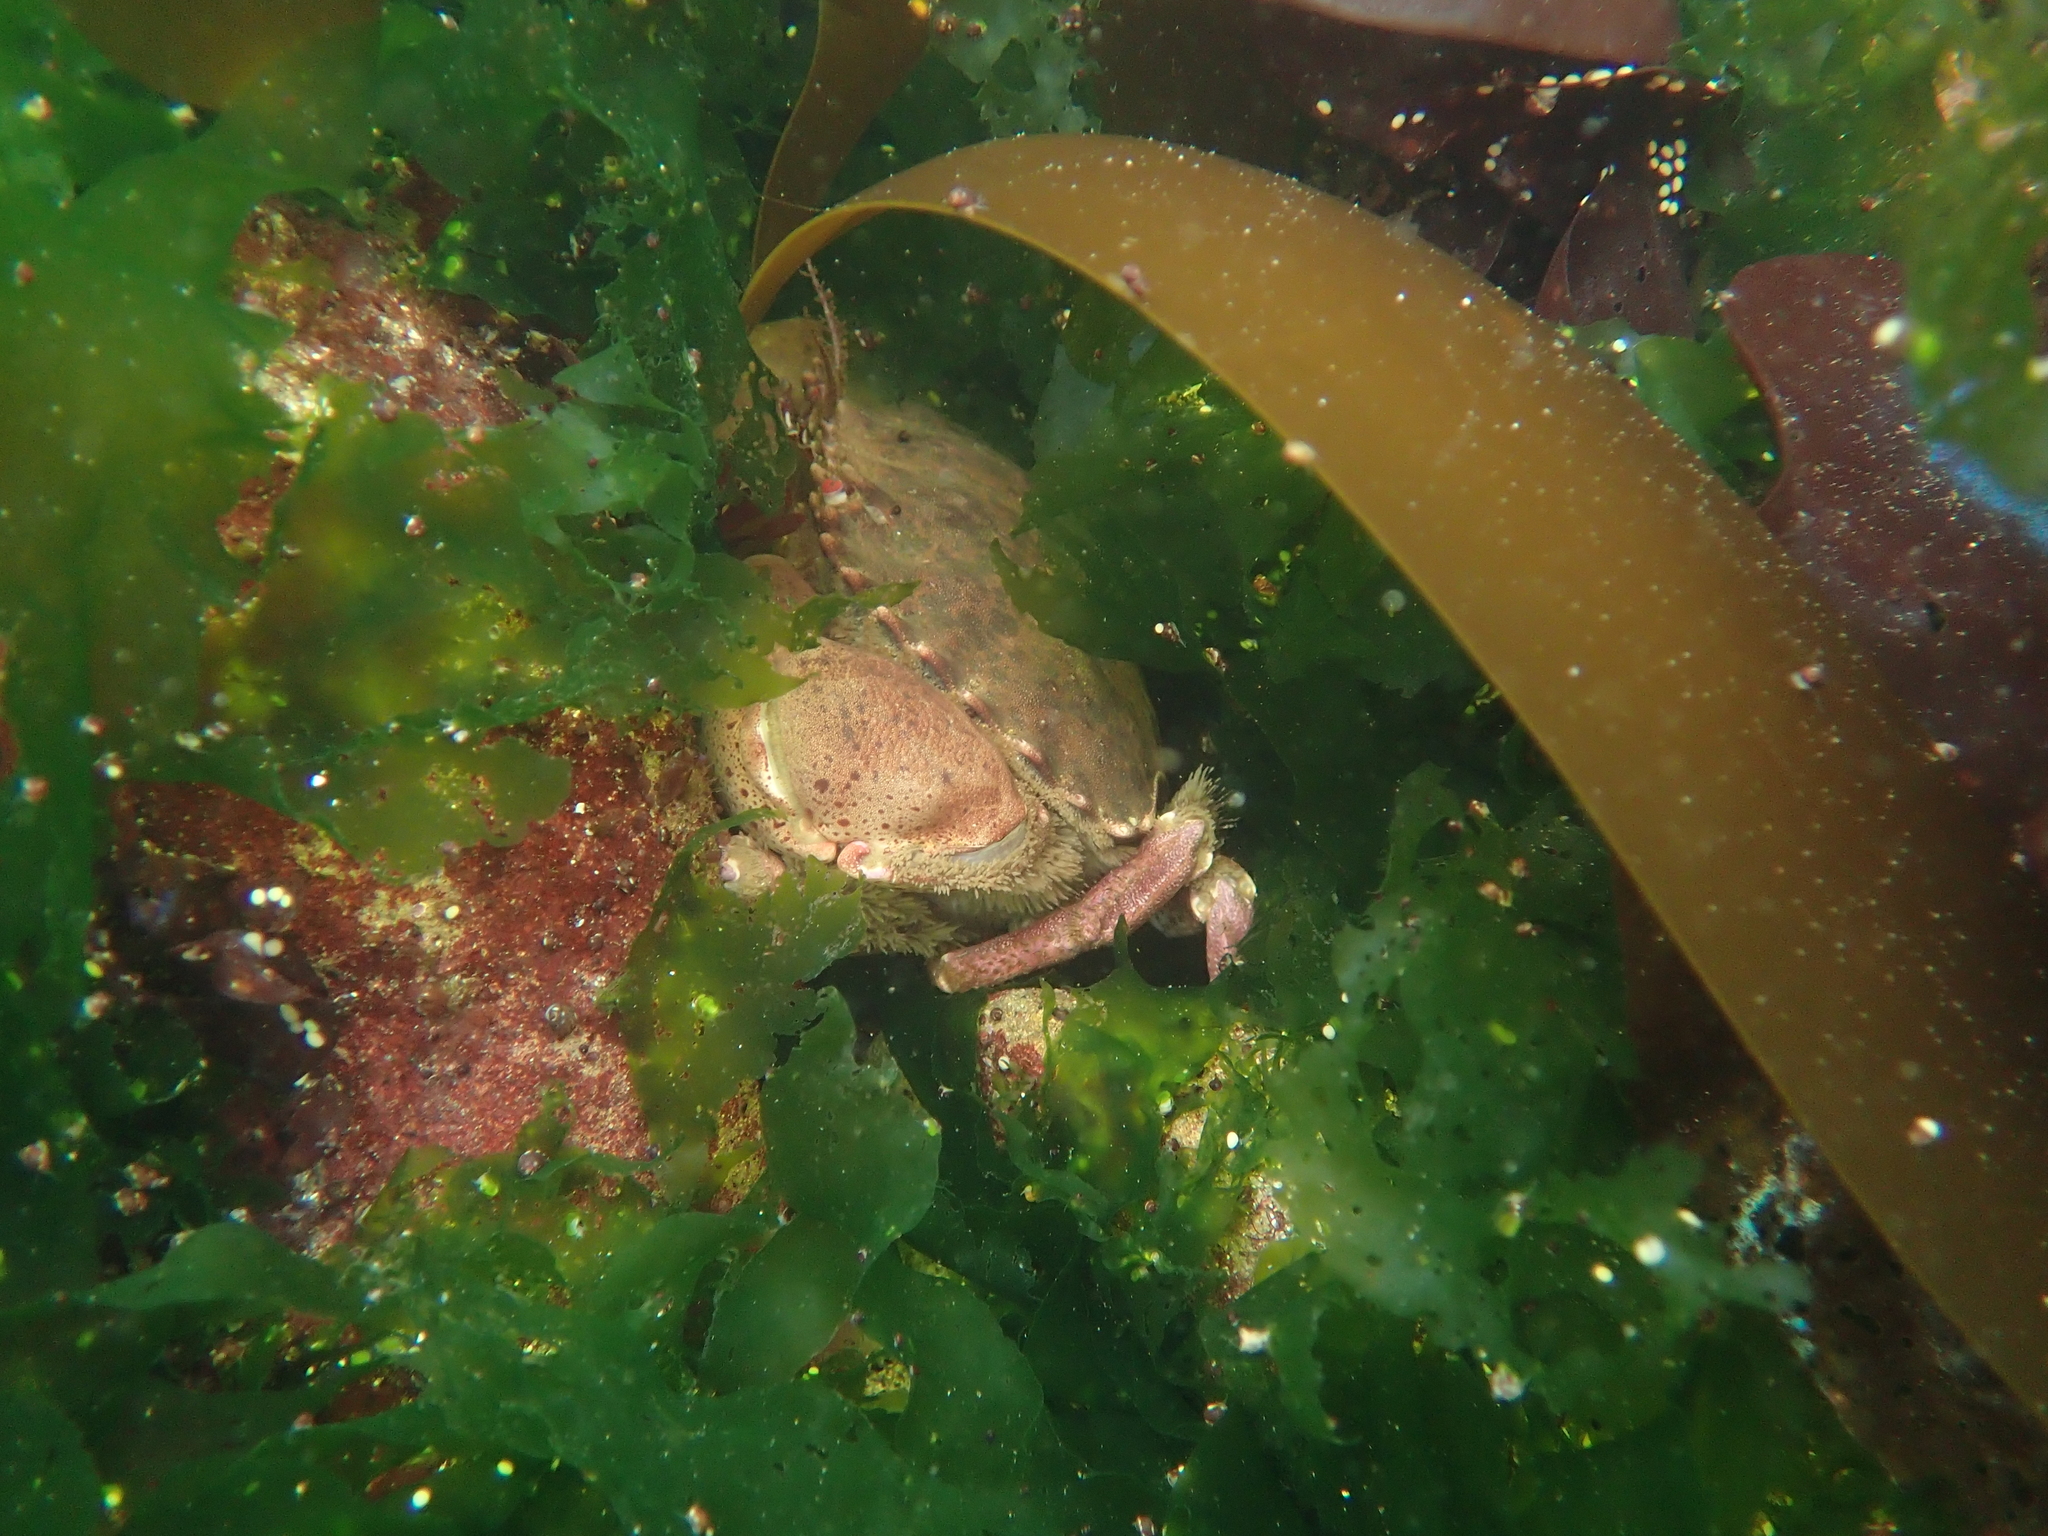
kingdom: Animalia
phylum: Arthropoda
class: Malacostraca
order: Decapoda
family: Cancridae
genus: Romaleon
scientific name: Romaleon antennarium
